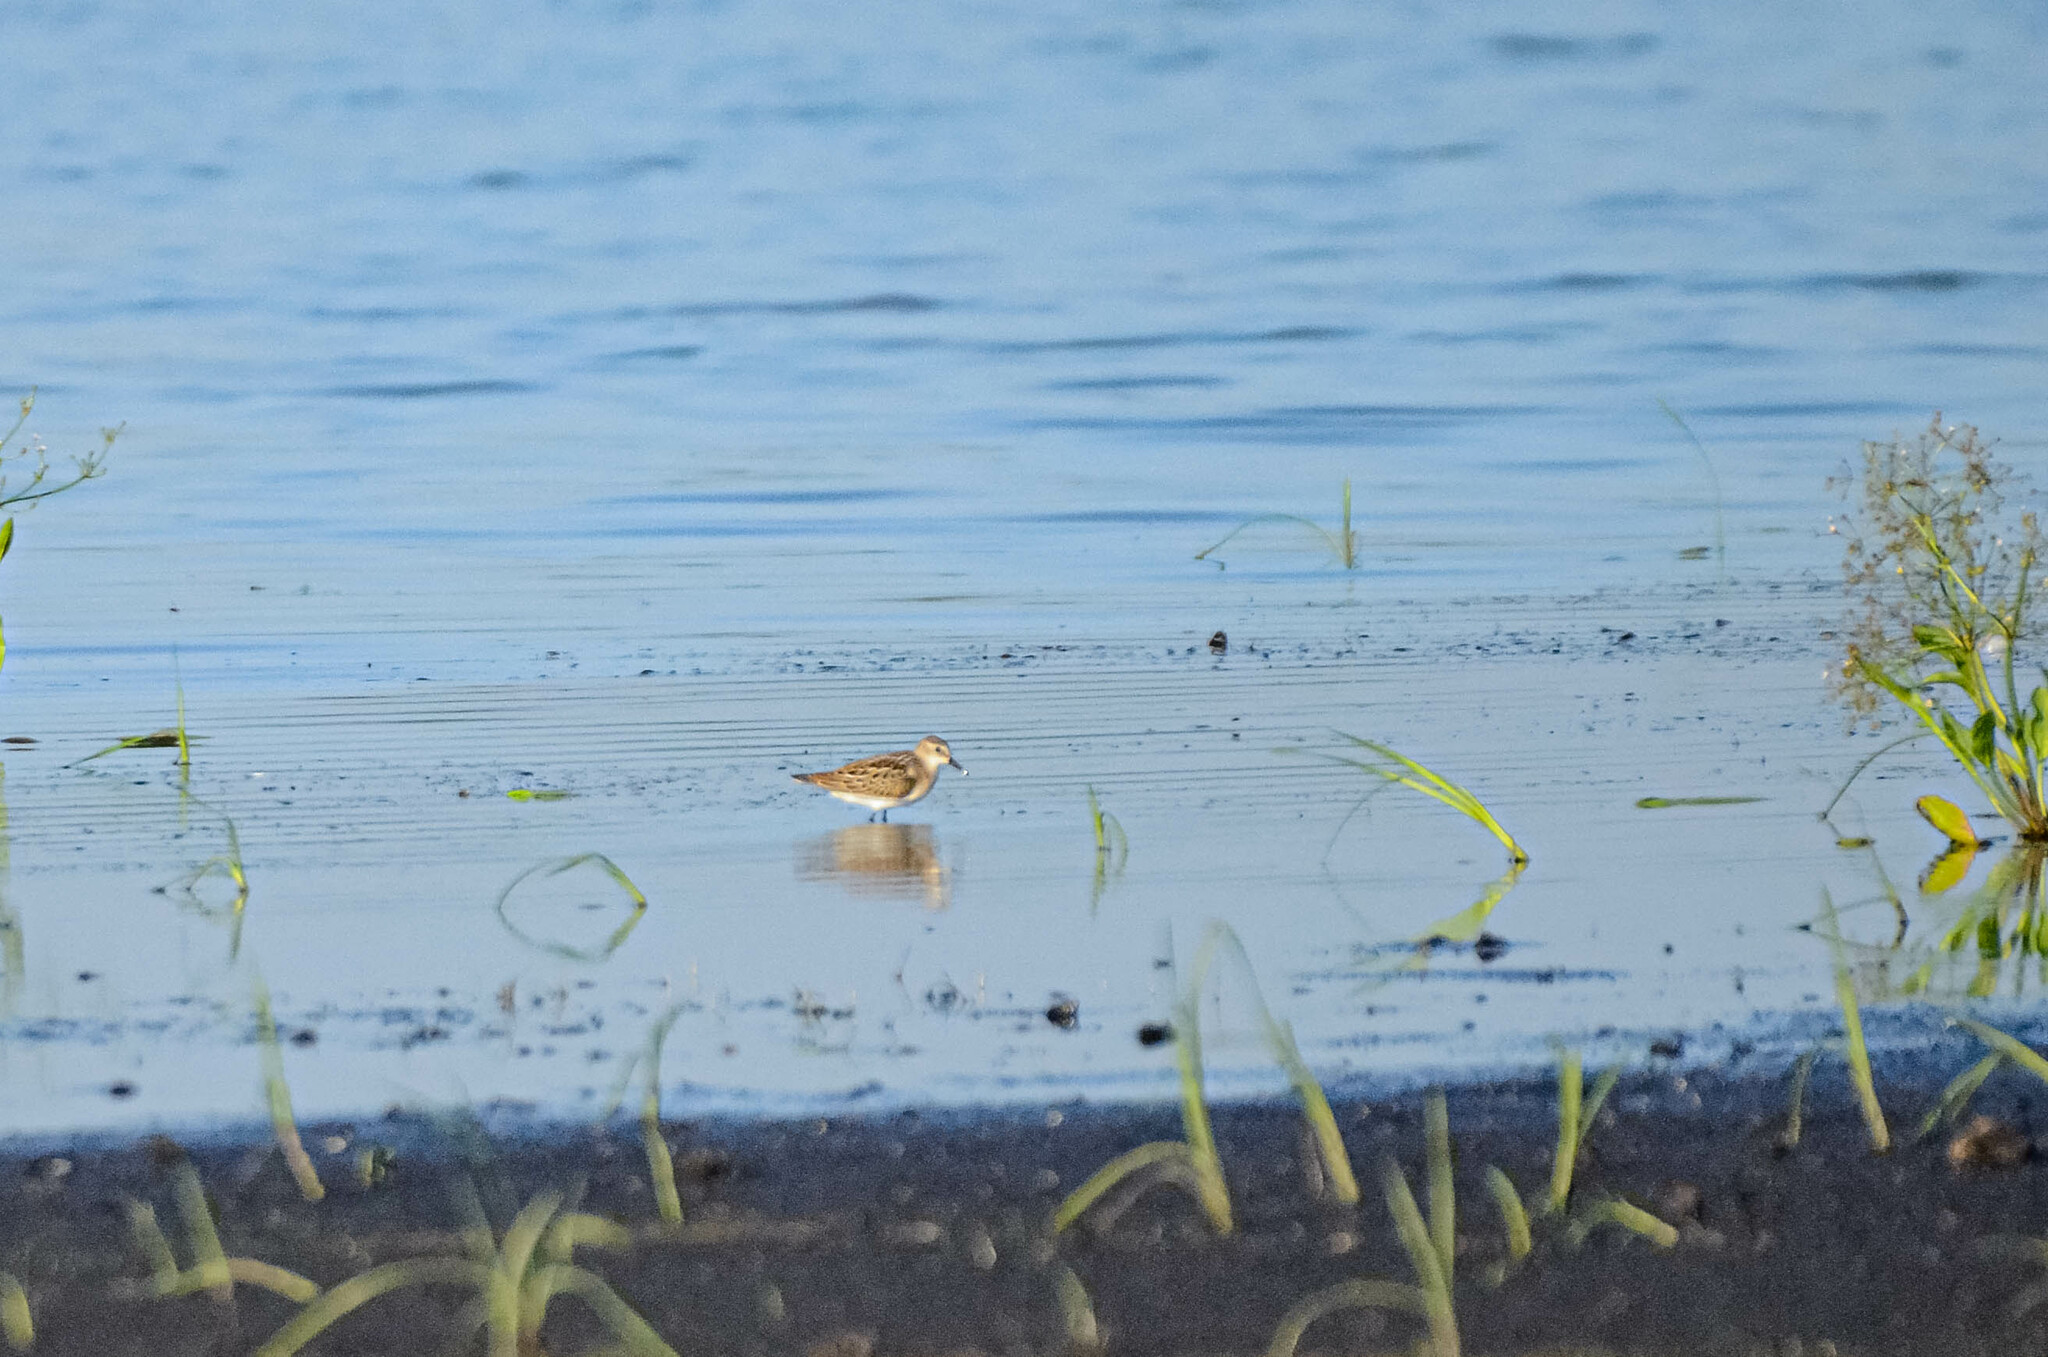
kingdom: Animalia
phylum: Chordata
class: Aves
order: Charadriiformes
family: Scolopacidae
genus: Calidris
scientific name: Calidris minuta
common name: Little stint
